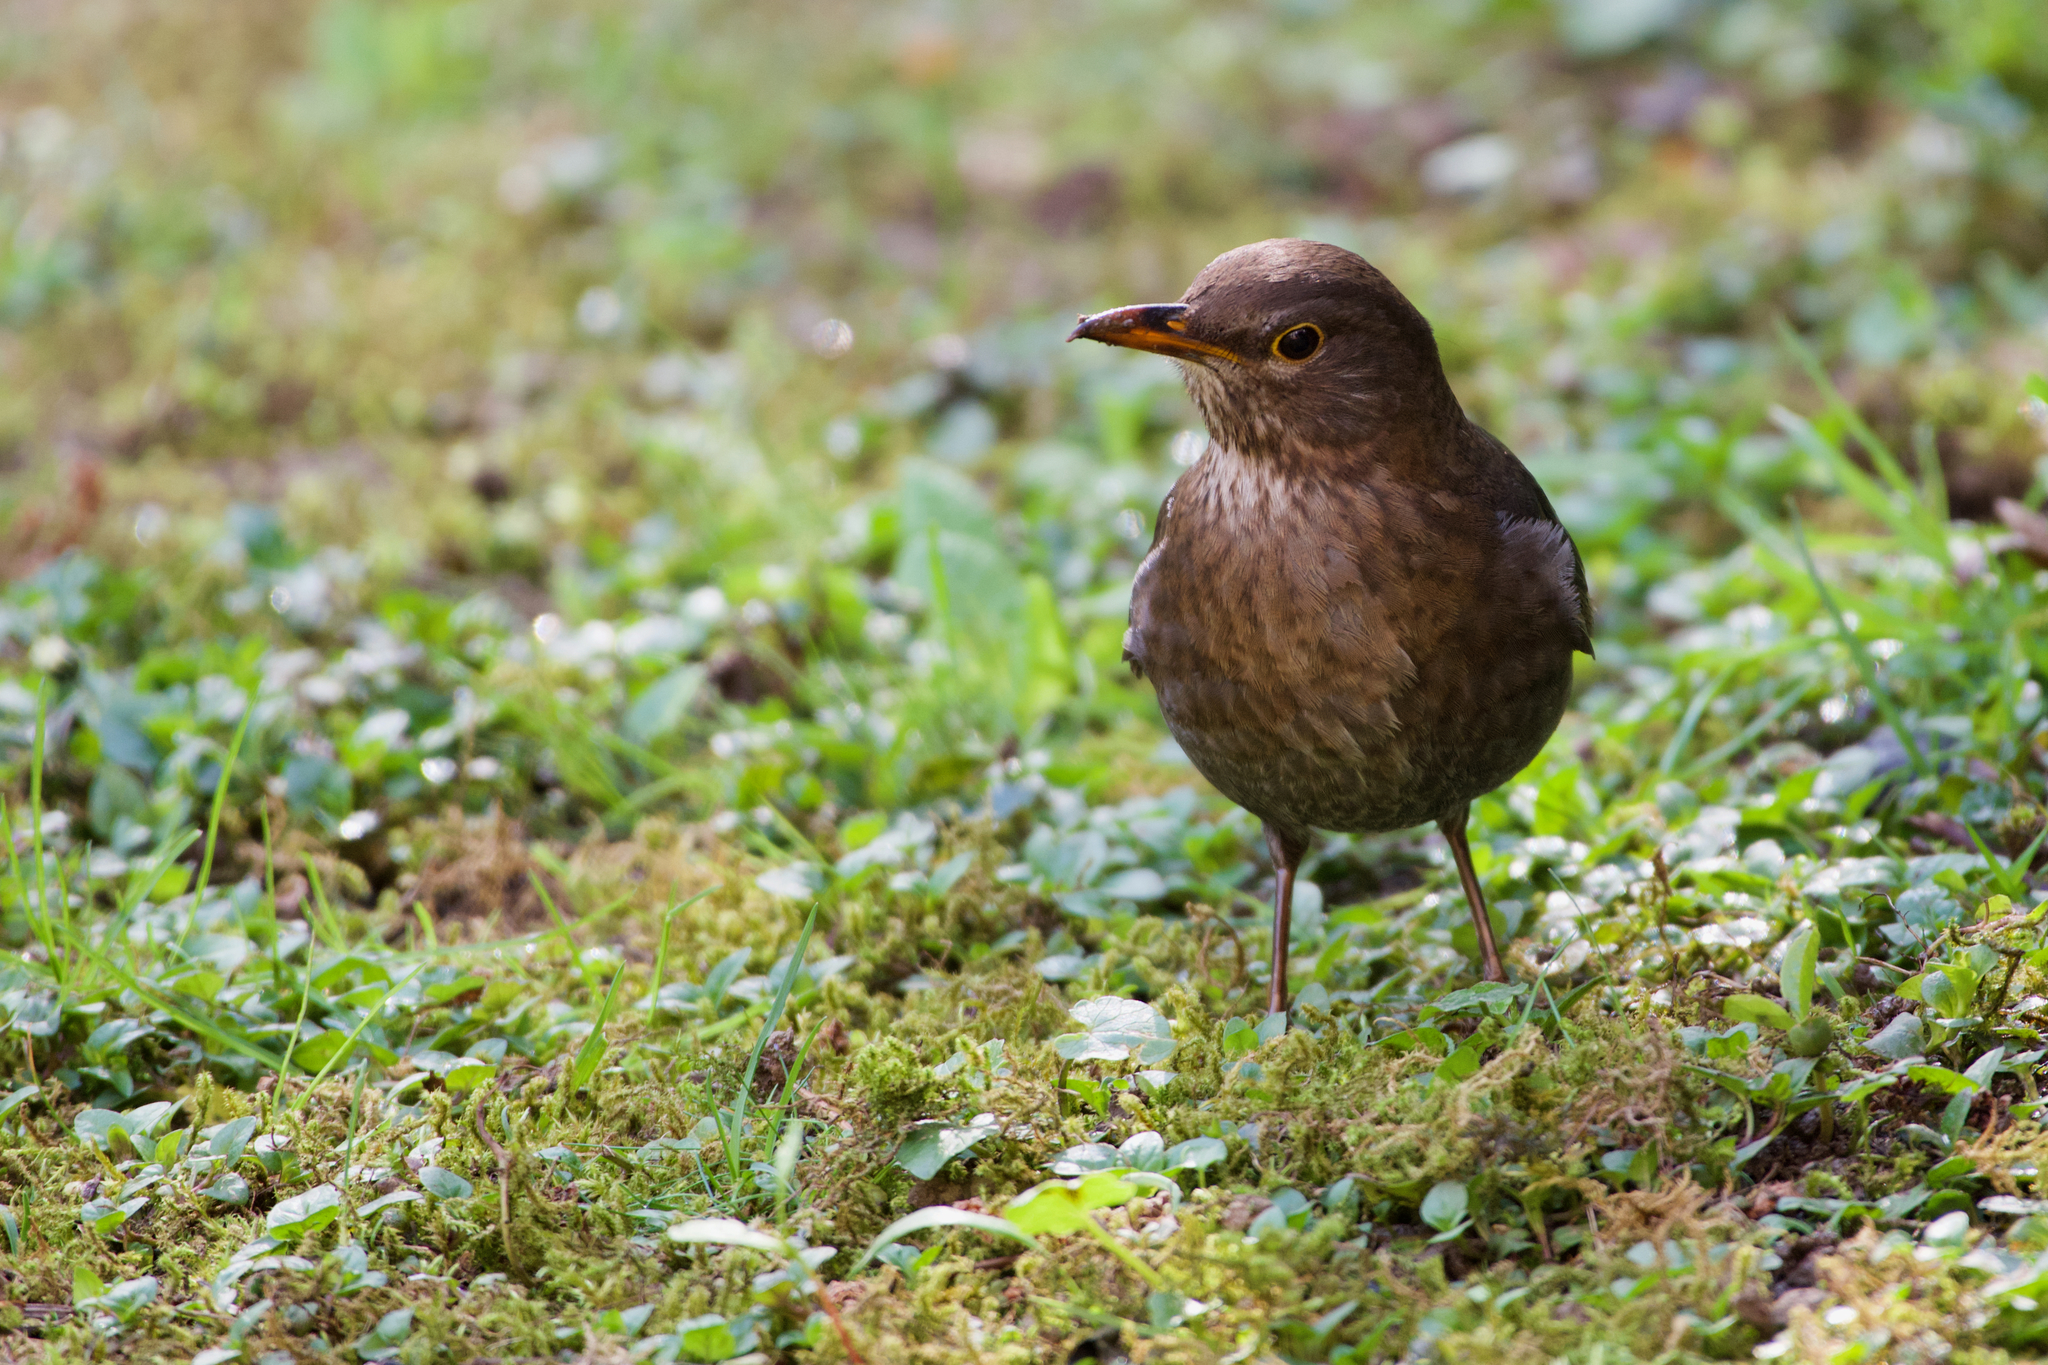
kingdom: Animalia
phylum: Chordata
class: Aves
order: Passeriformes
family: Turdidae
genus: Turdus
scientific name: Turdus merula
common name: Common blackbird
